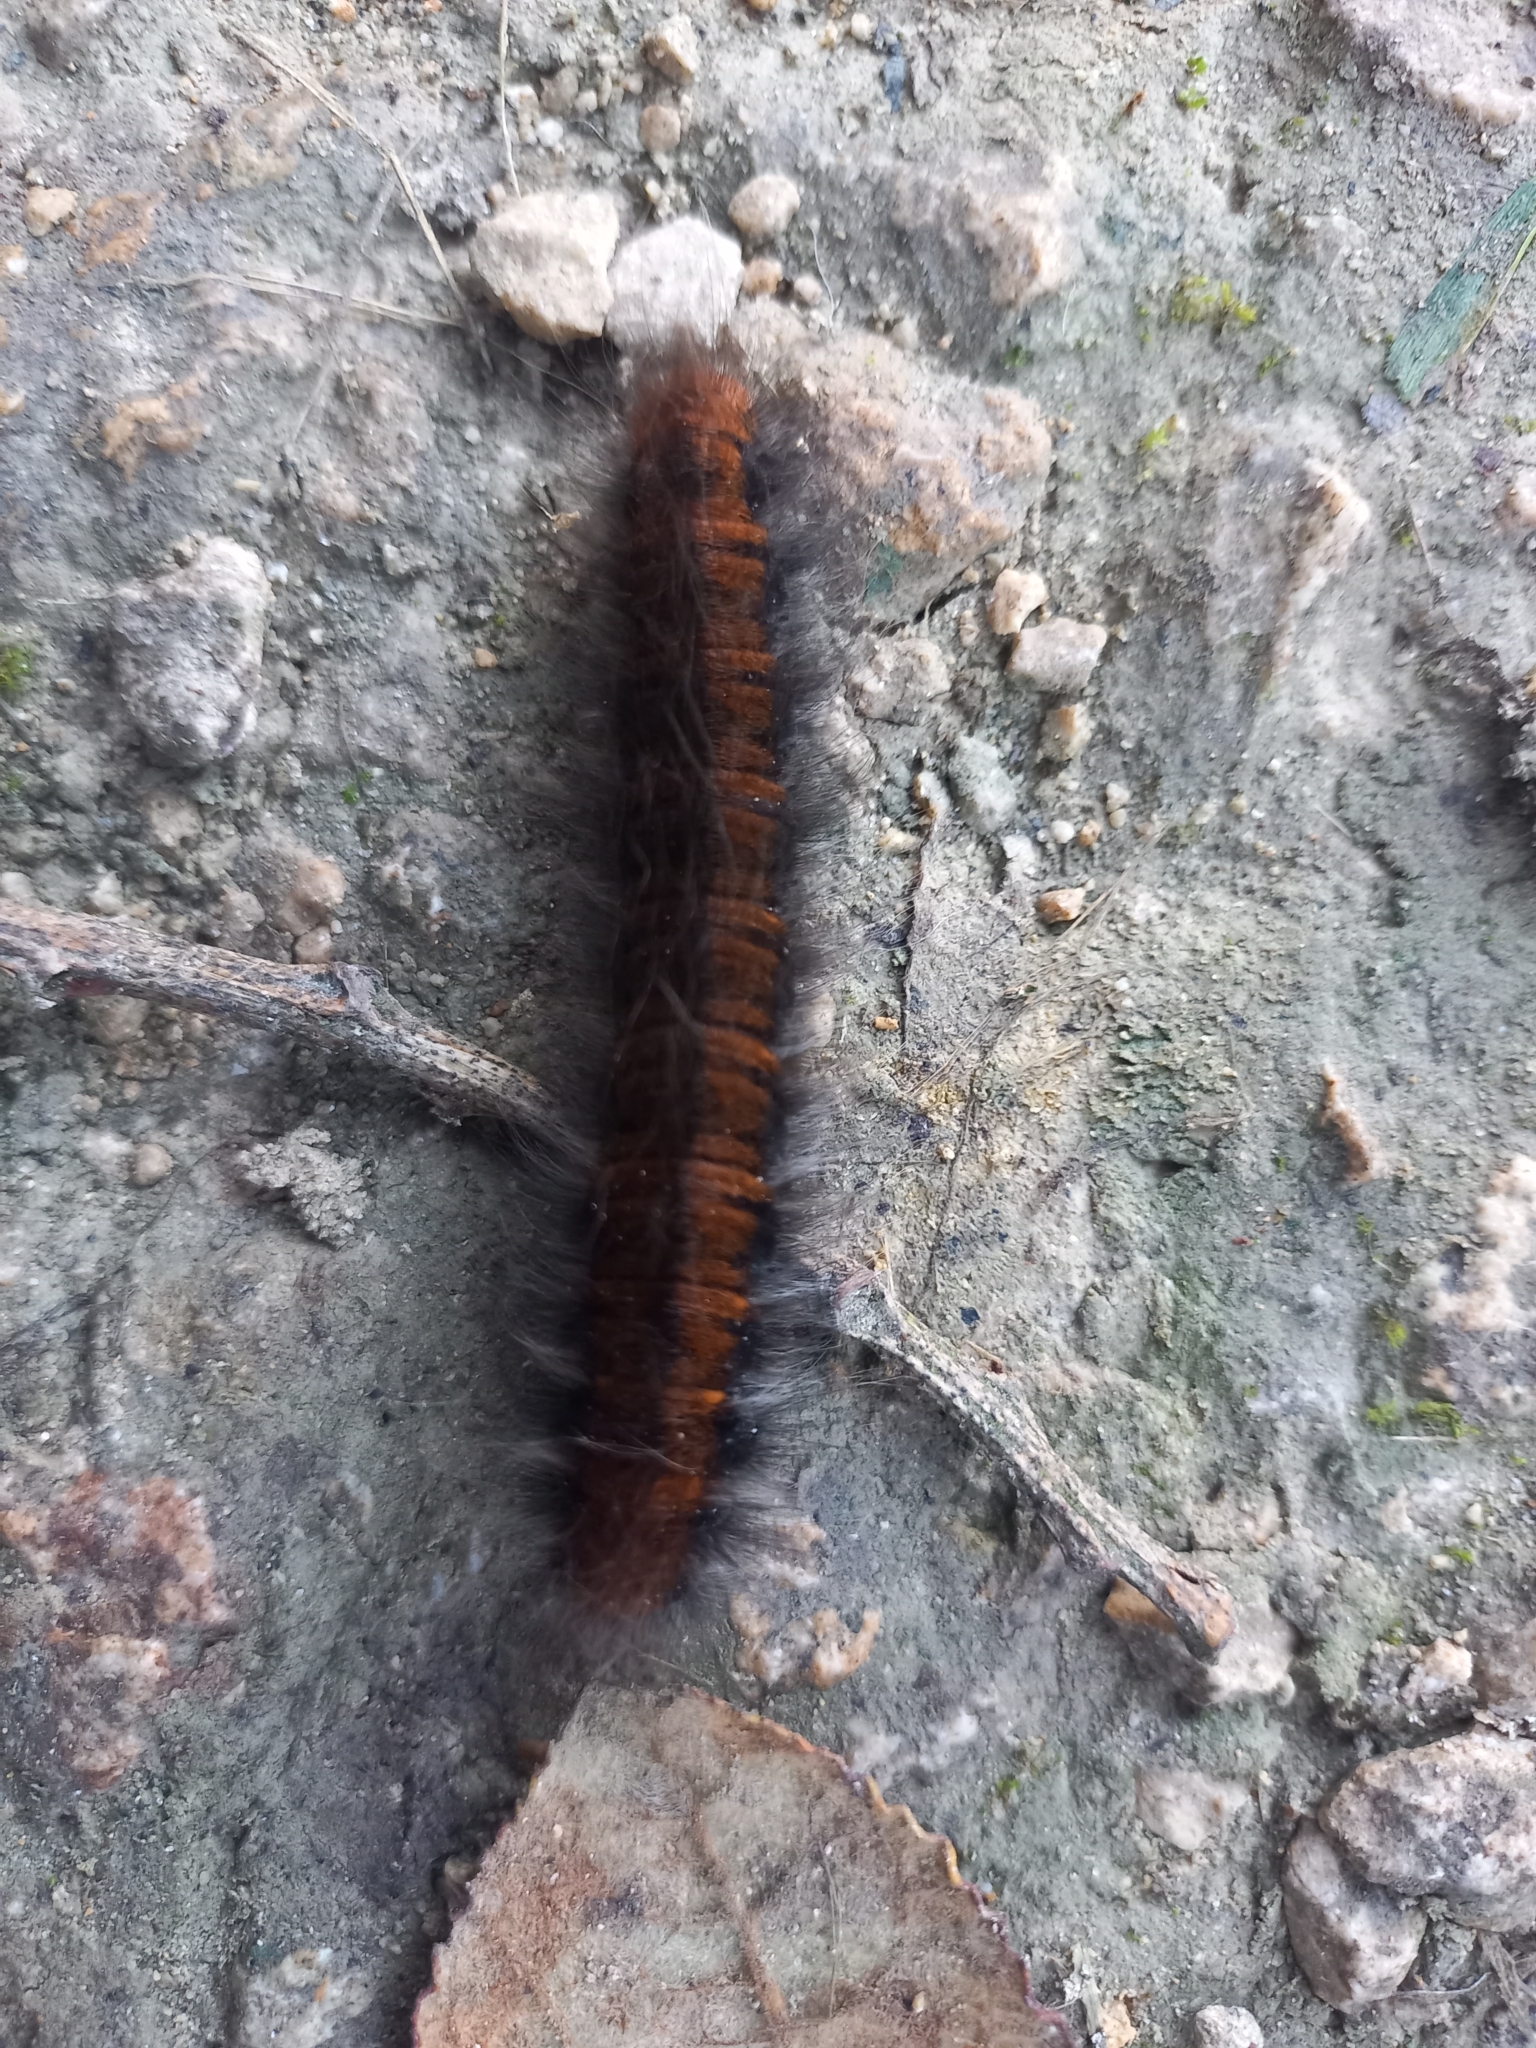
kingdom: Animalia
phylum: Arthropoda
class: Insecta
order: Lepidoptera
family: Lasiocampidae
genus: Macrothylacia
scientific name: Macrothylacia rubi
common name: Fox moth
